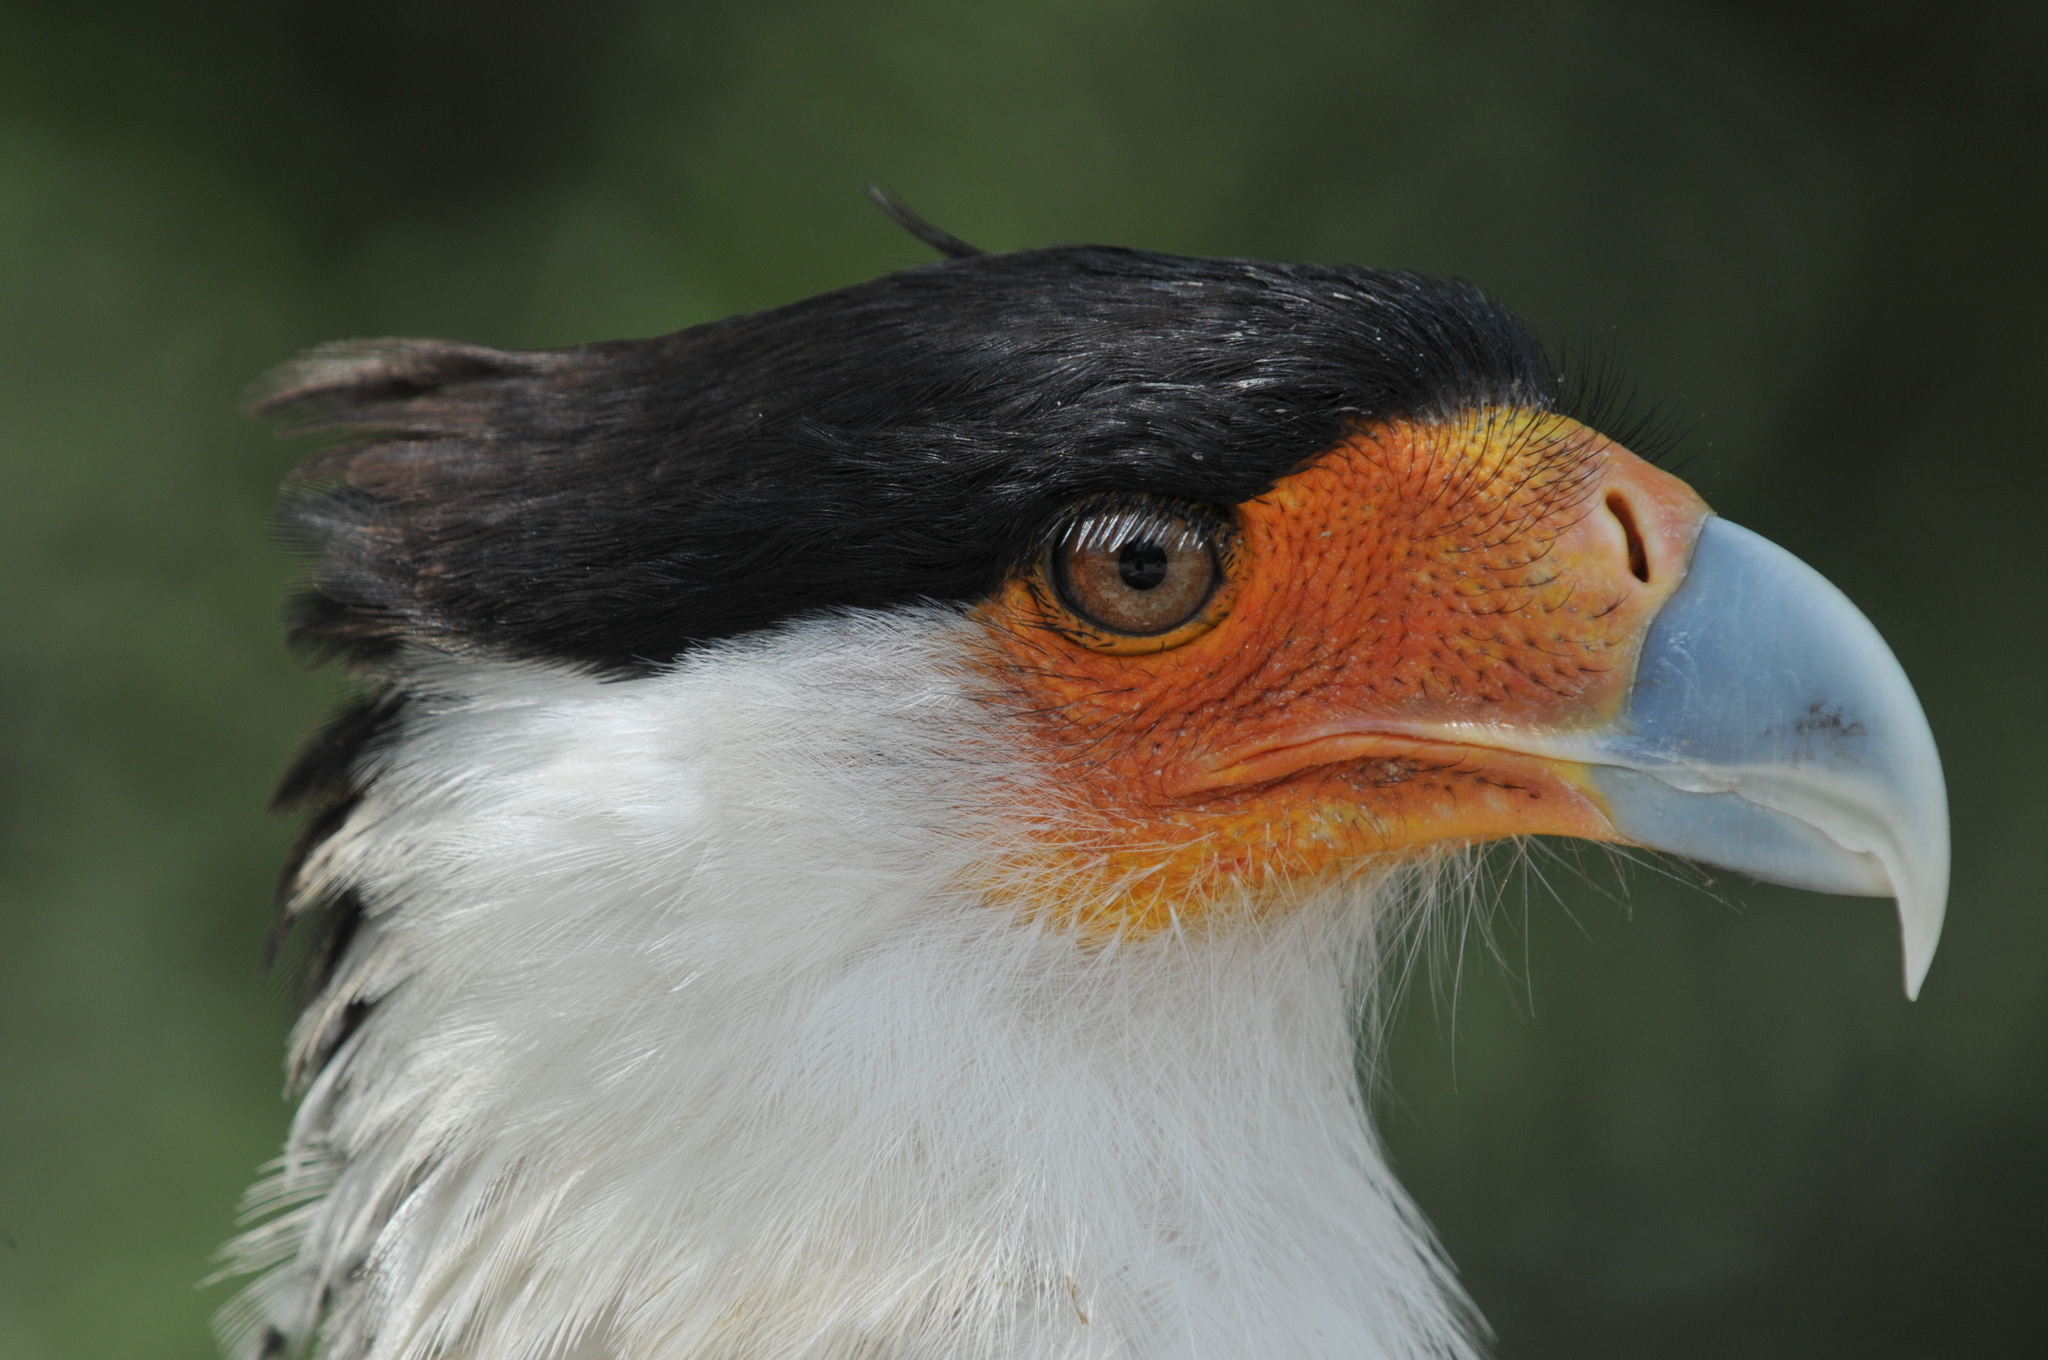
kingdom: Animalia
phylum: Chordata
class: Aves
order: Falconiformes
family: Falconidae
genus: Caracara
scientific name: Caracara plancus
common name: Southern caracara
